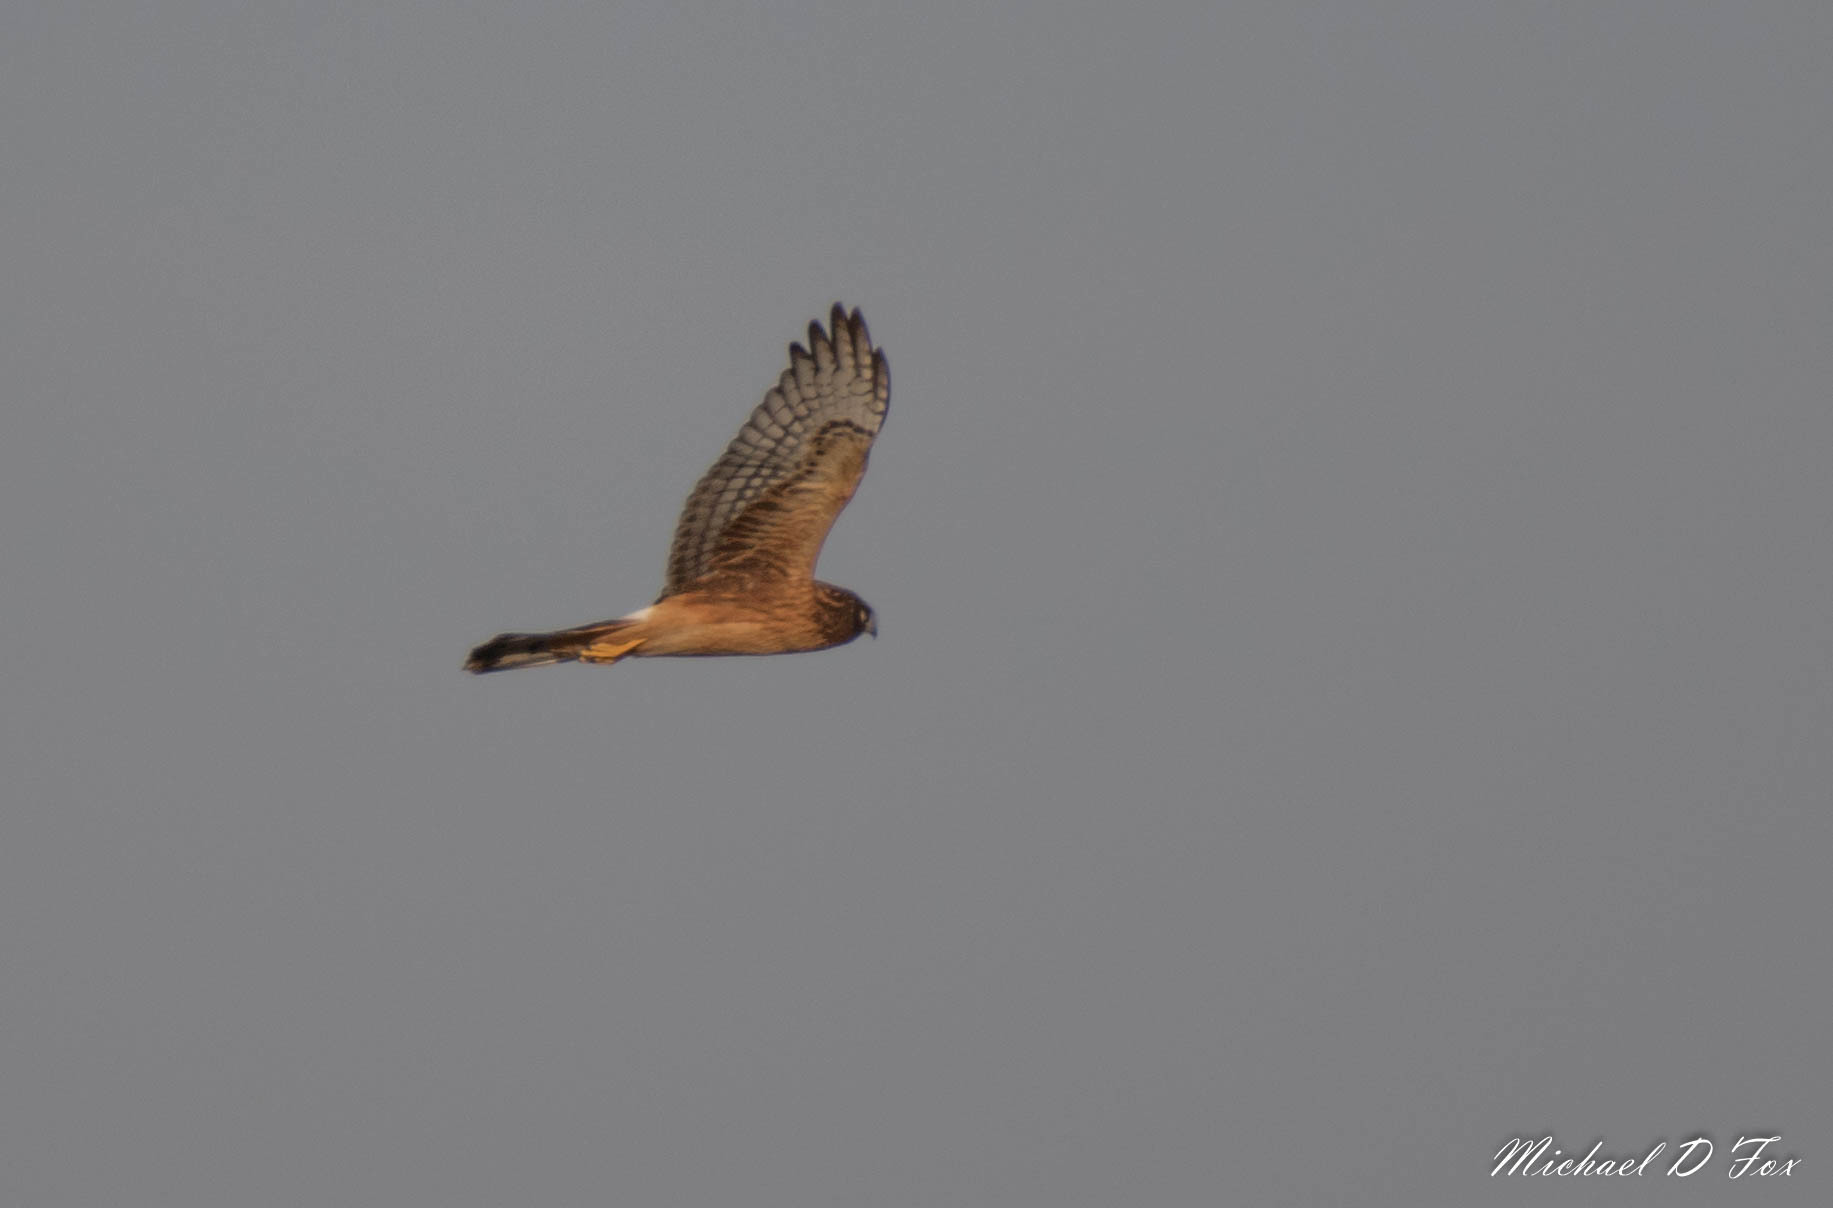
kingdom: Animalia
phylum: Chordata
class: Aves
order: Accipitriformes
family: Accipitridae
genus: Circus
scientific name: Circus cyaneus
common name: Hen harrier
